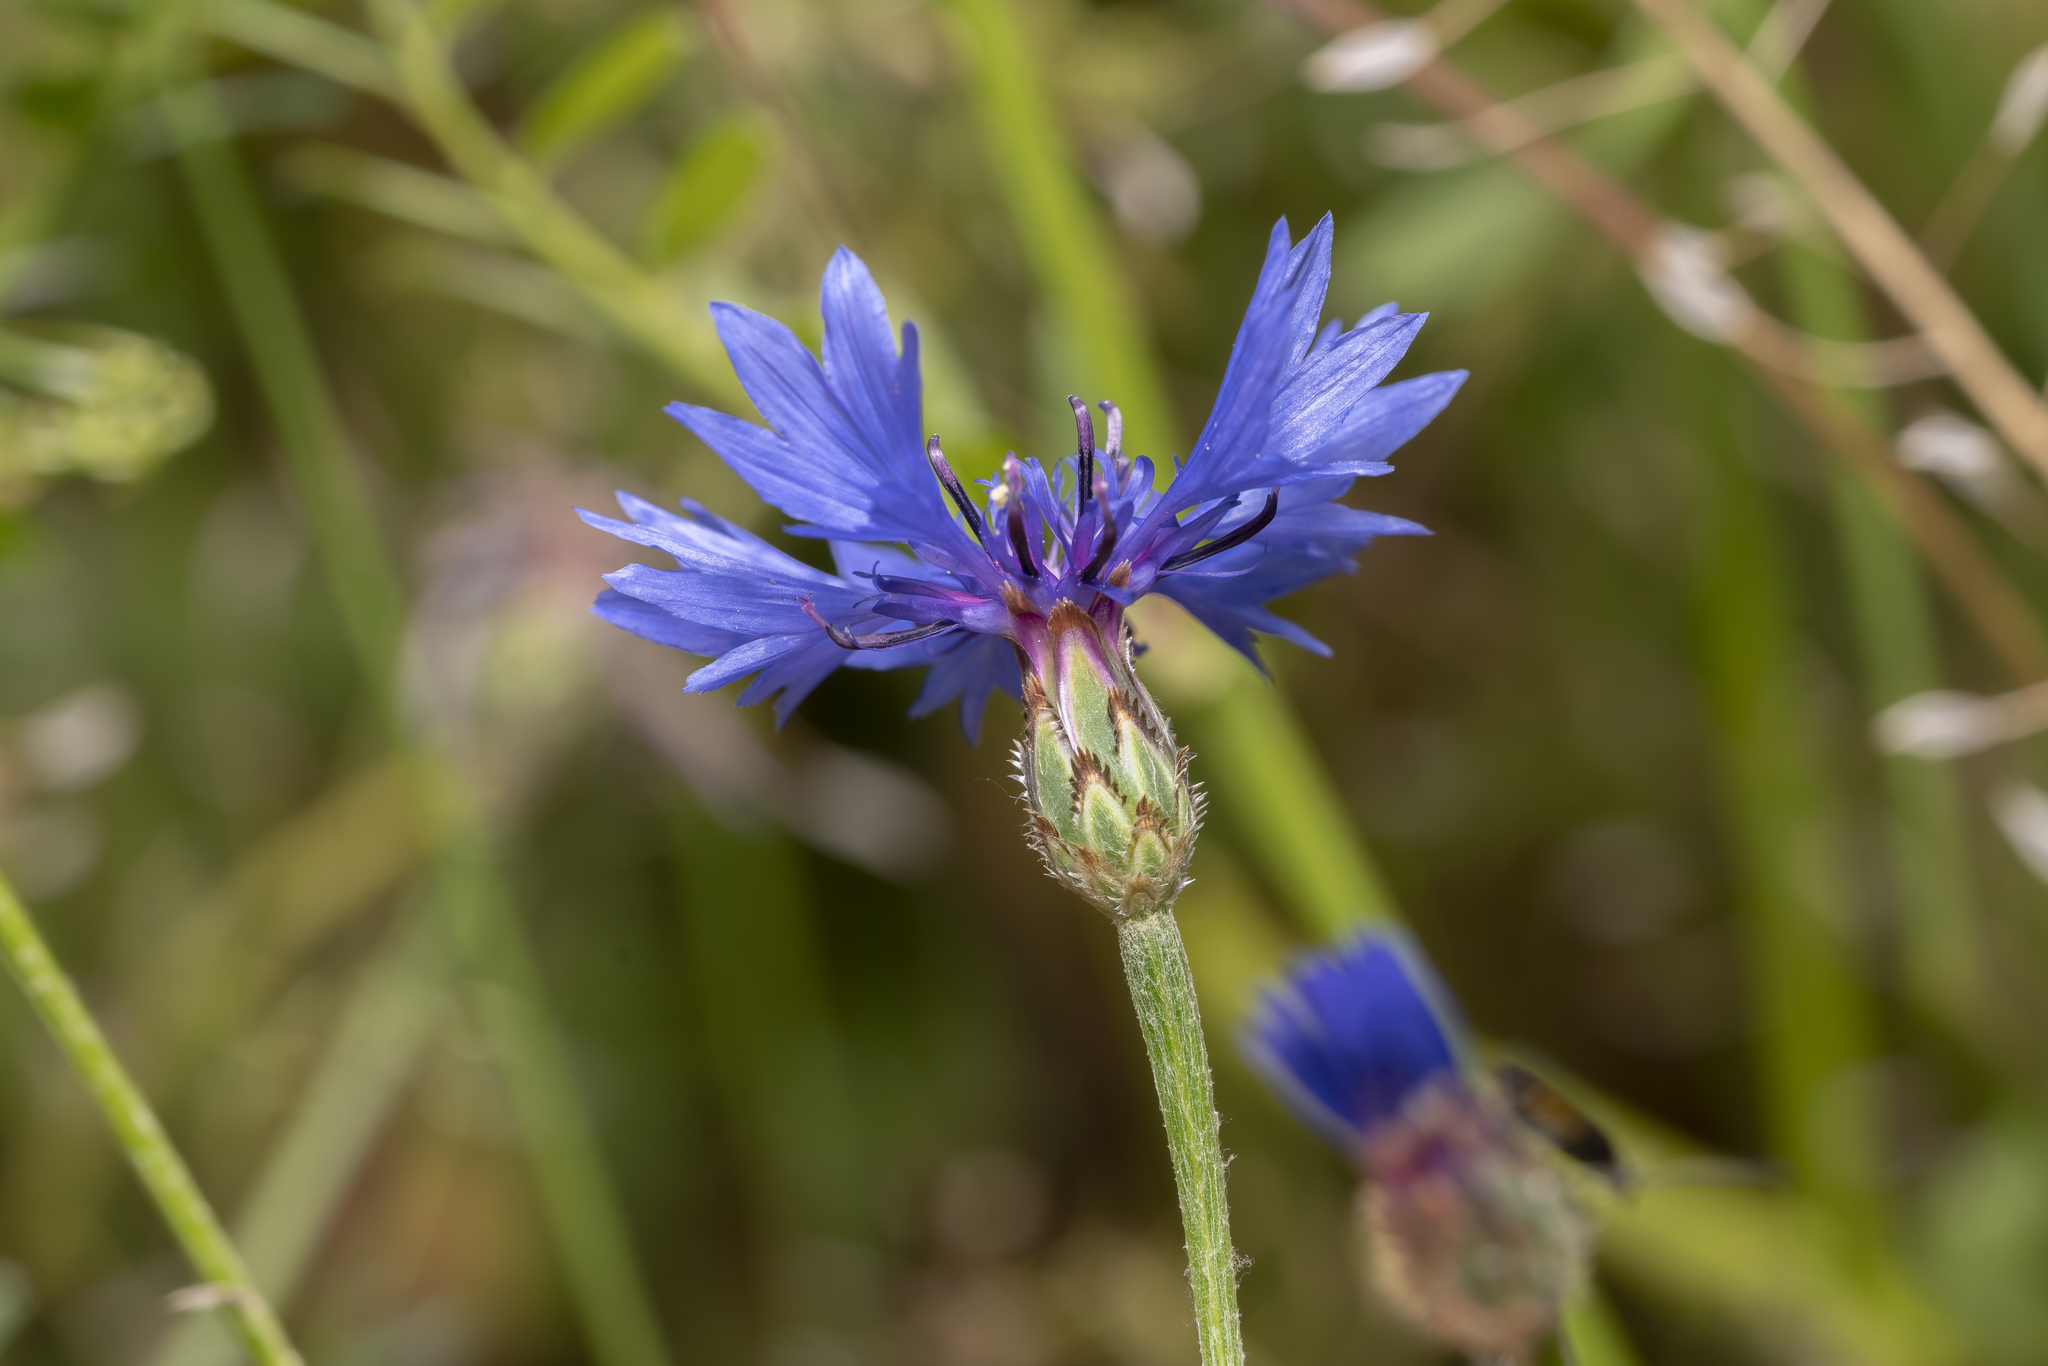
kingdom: Plantae
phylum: Tracheophyta
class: Magnoliopsida
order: Asterales
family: Asteraceae
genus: Centaurea
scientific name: Centaurea cyanus
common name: Cornflower
